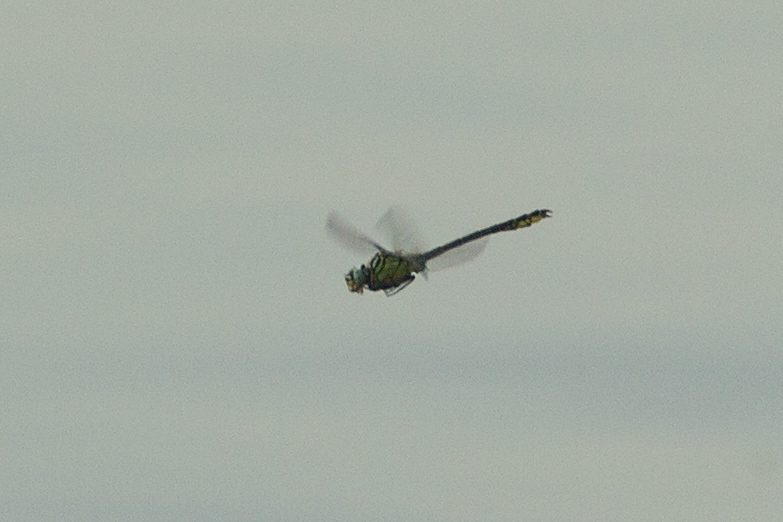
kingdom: Animalia
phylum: Arthropoda
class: Insecta
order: Odonata
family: Gomphidae
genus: Stylurus
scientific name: Stylurus flavipes
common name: River clubtail
